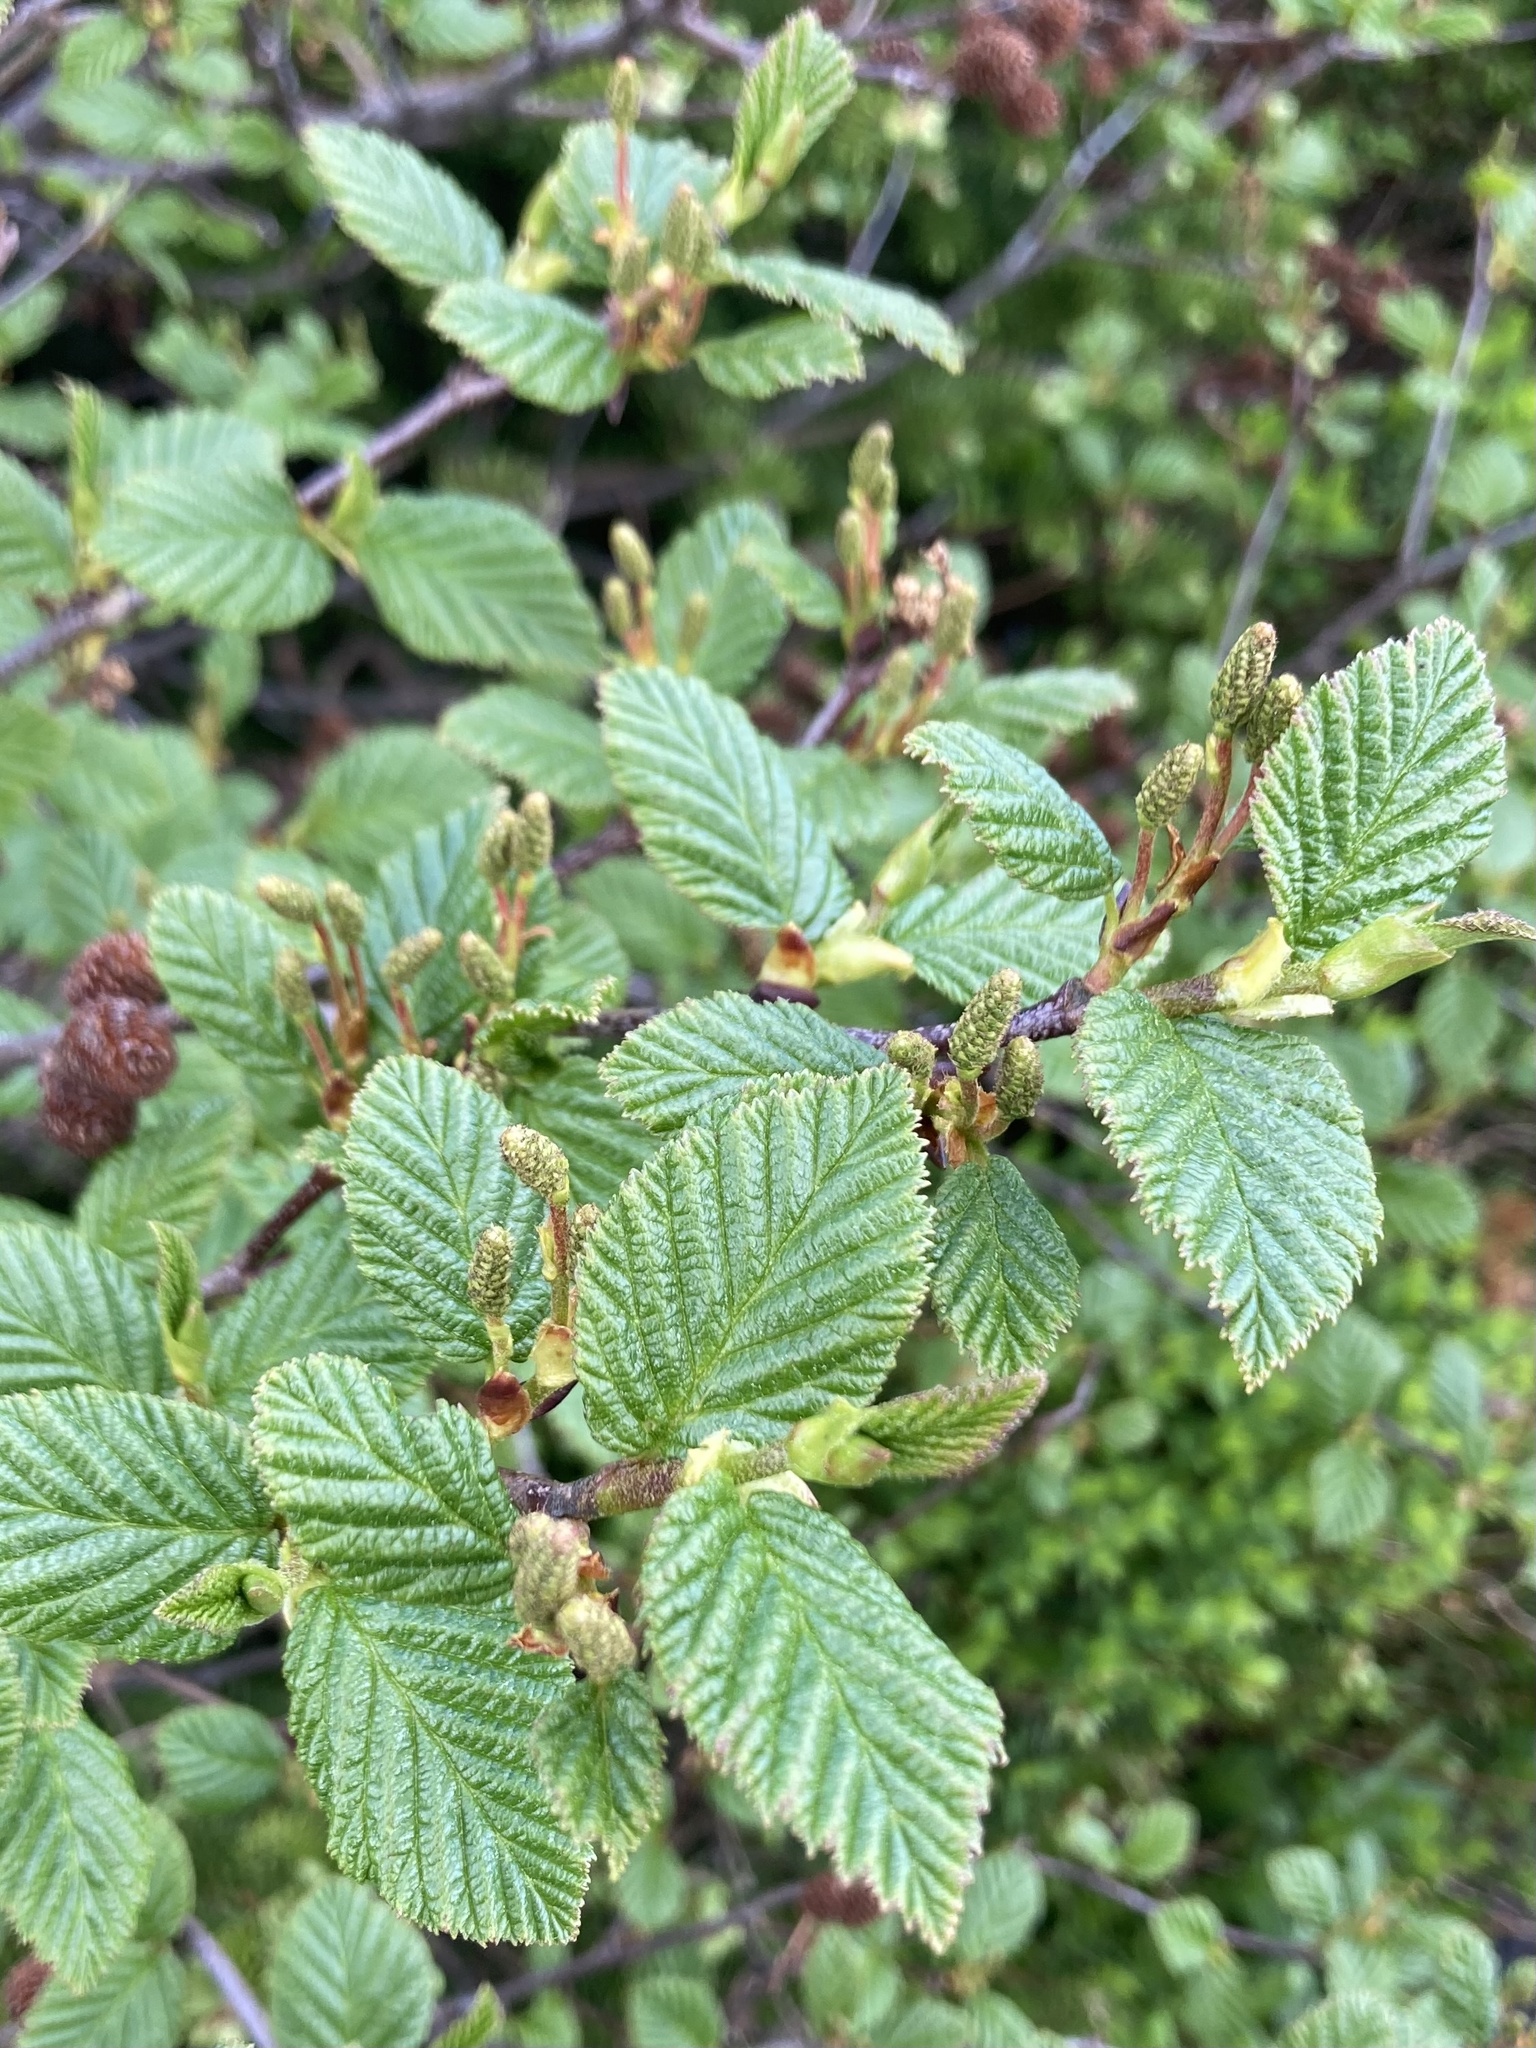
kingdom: Plantae
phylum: Tracheophyta
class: Magnoliopsida
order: Fagales
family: Betulaceae
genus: Alnus
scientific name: Alnus alnobetula
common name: Green alder
